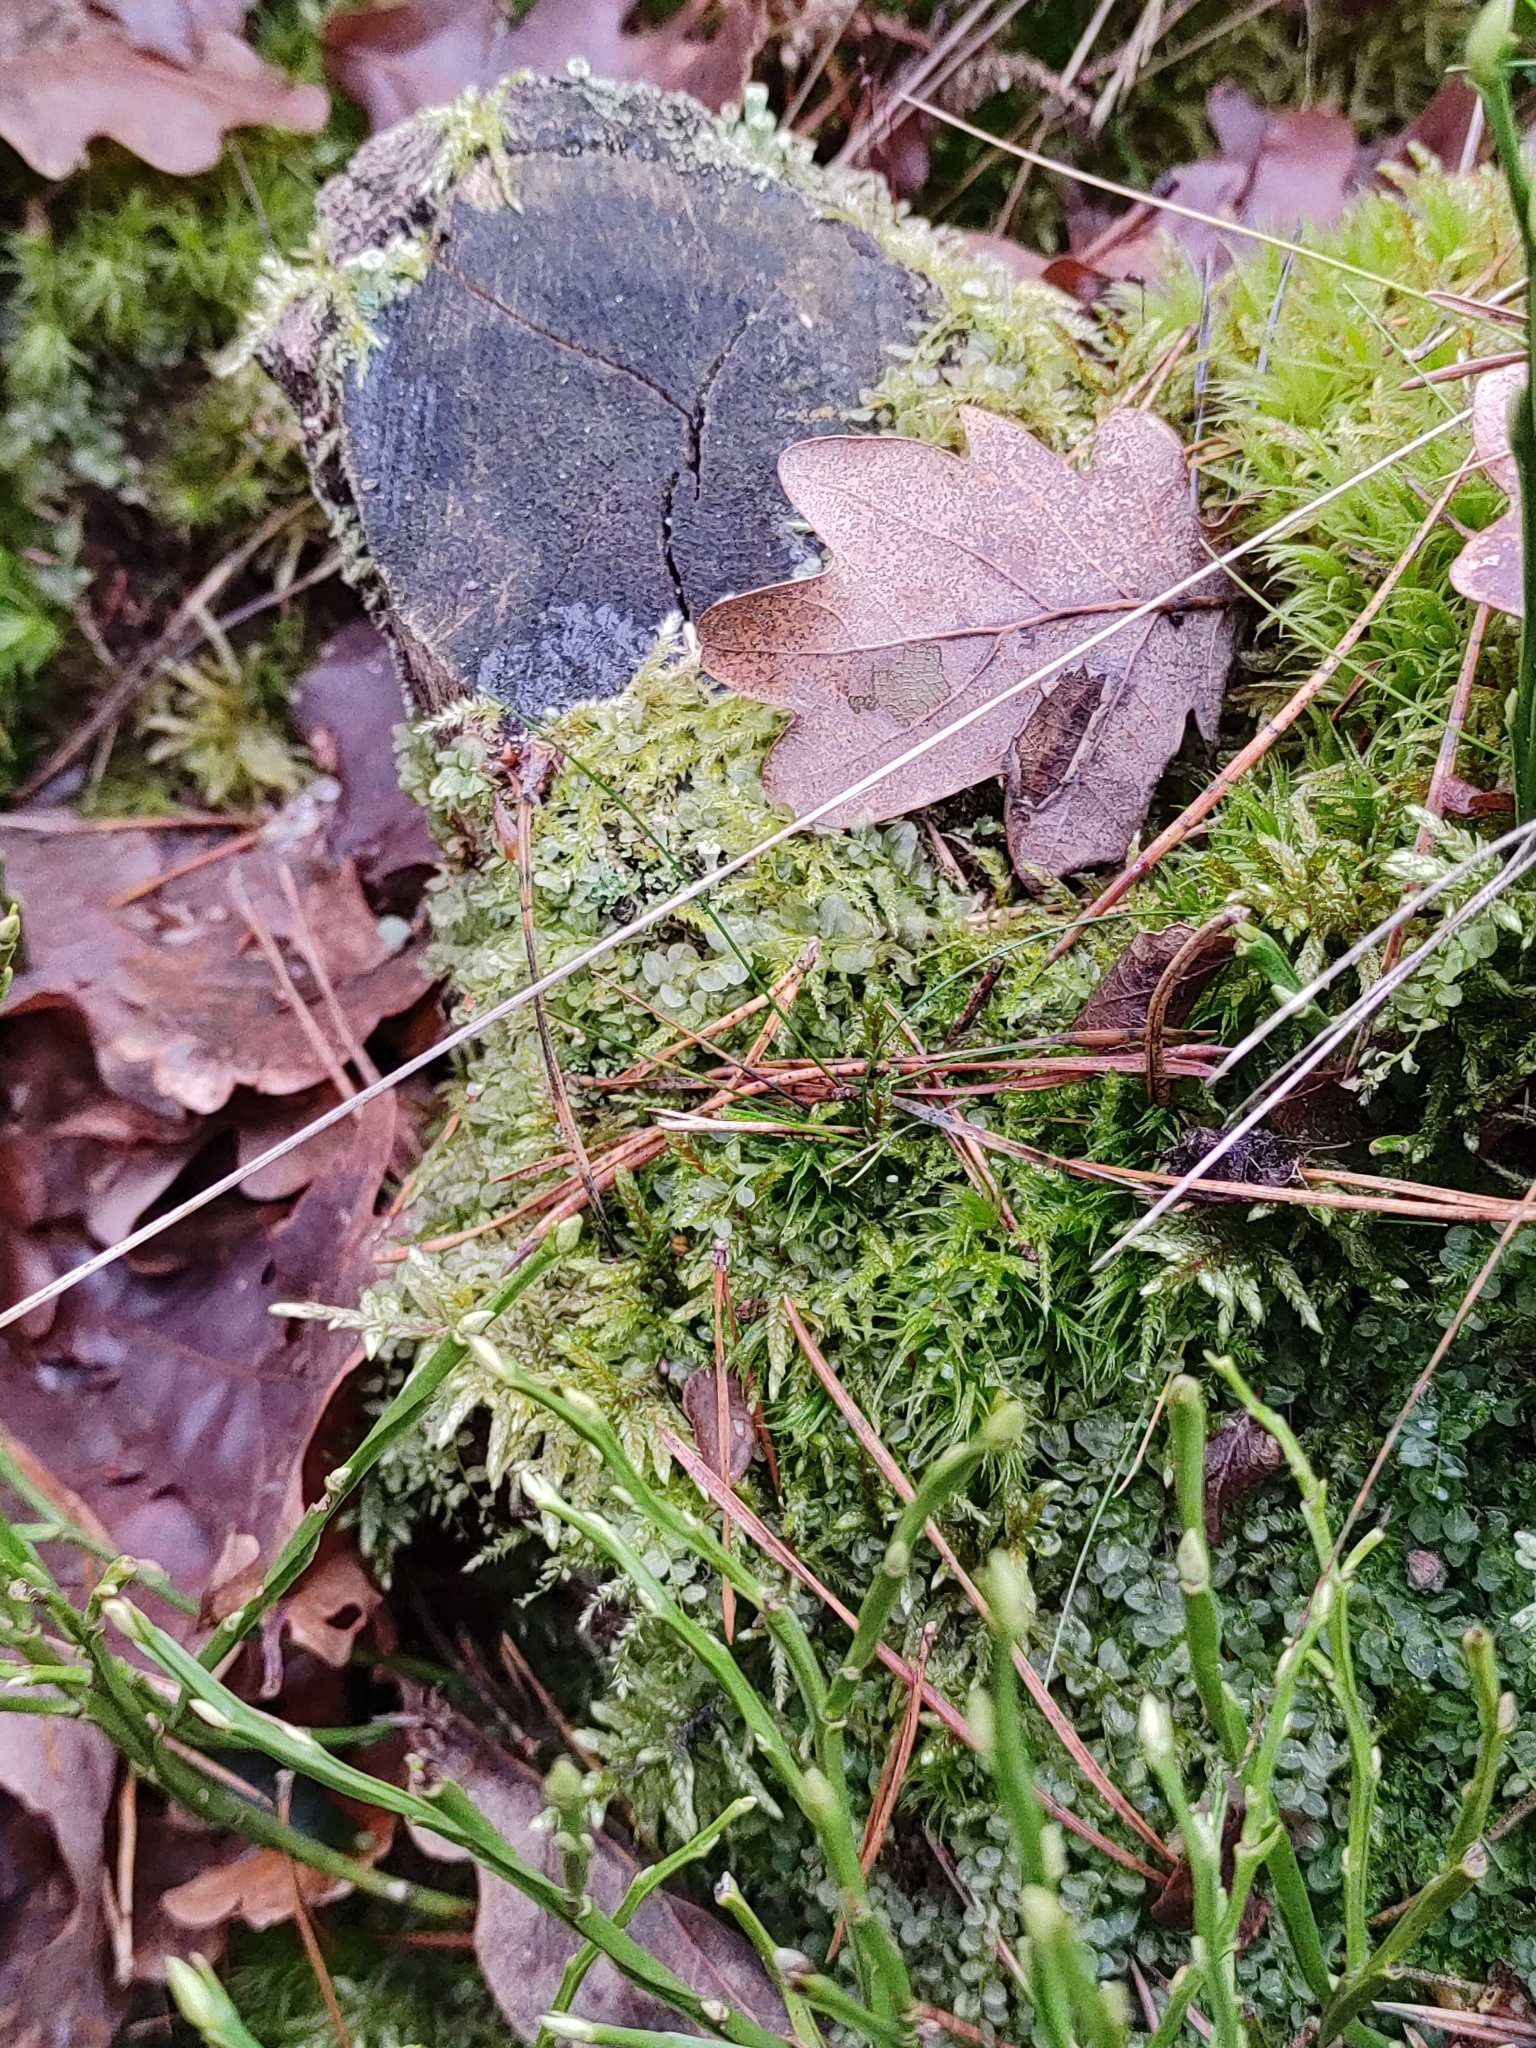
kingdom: Plantae
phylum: Bryophyta
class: Bryopsida
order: Bryales
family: Mniaceae
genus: Plagiomnium
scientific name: Plagiomnium affine
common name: Many-fruited thyme-moss
